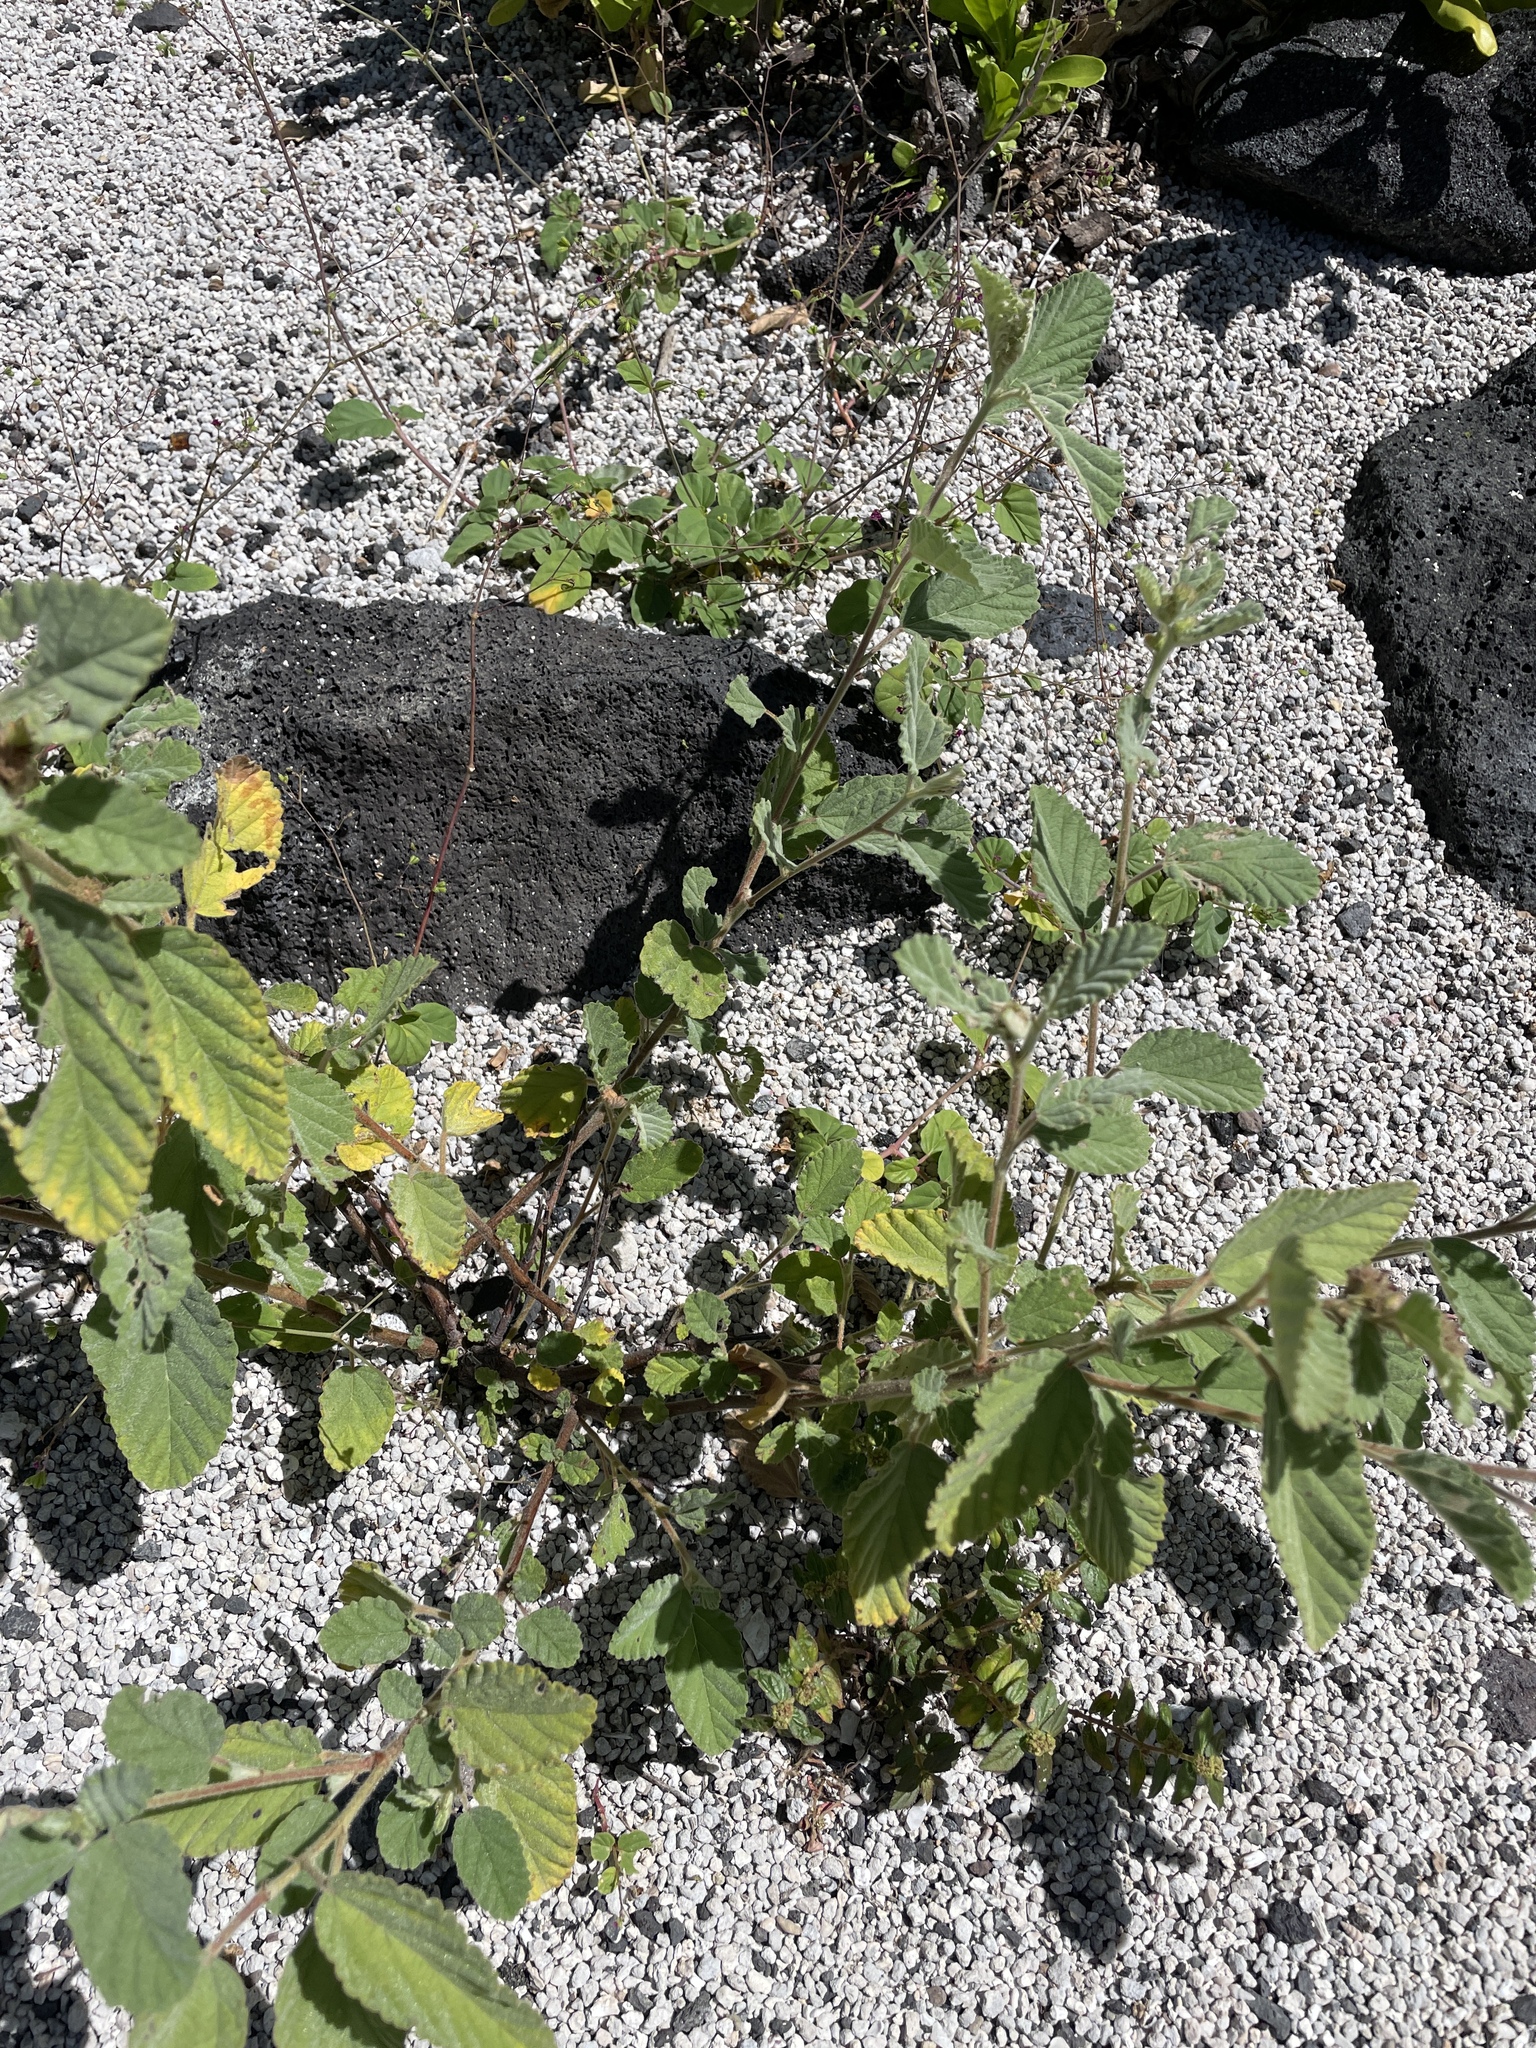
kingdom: Plantae
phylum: Tracheophyta
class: Magnoliopsida
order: Malvales
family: Malvaceae
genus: Waltheria
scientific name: Waltheria indica
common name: Leather-coat
